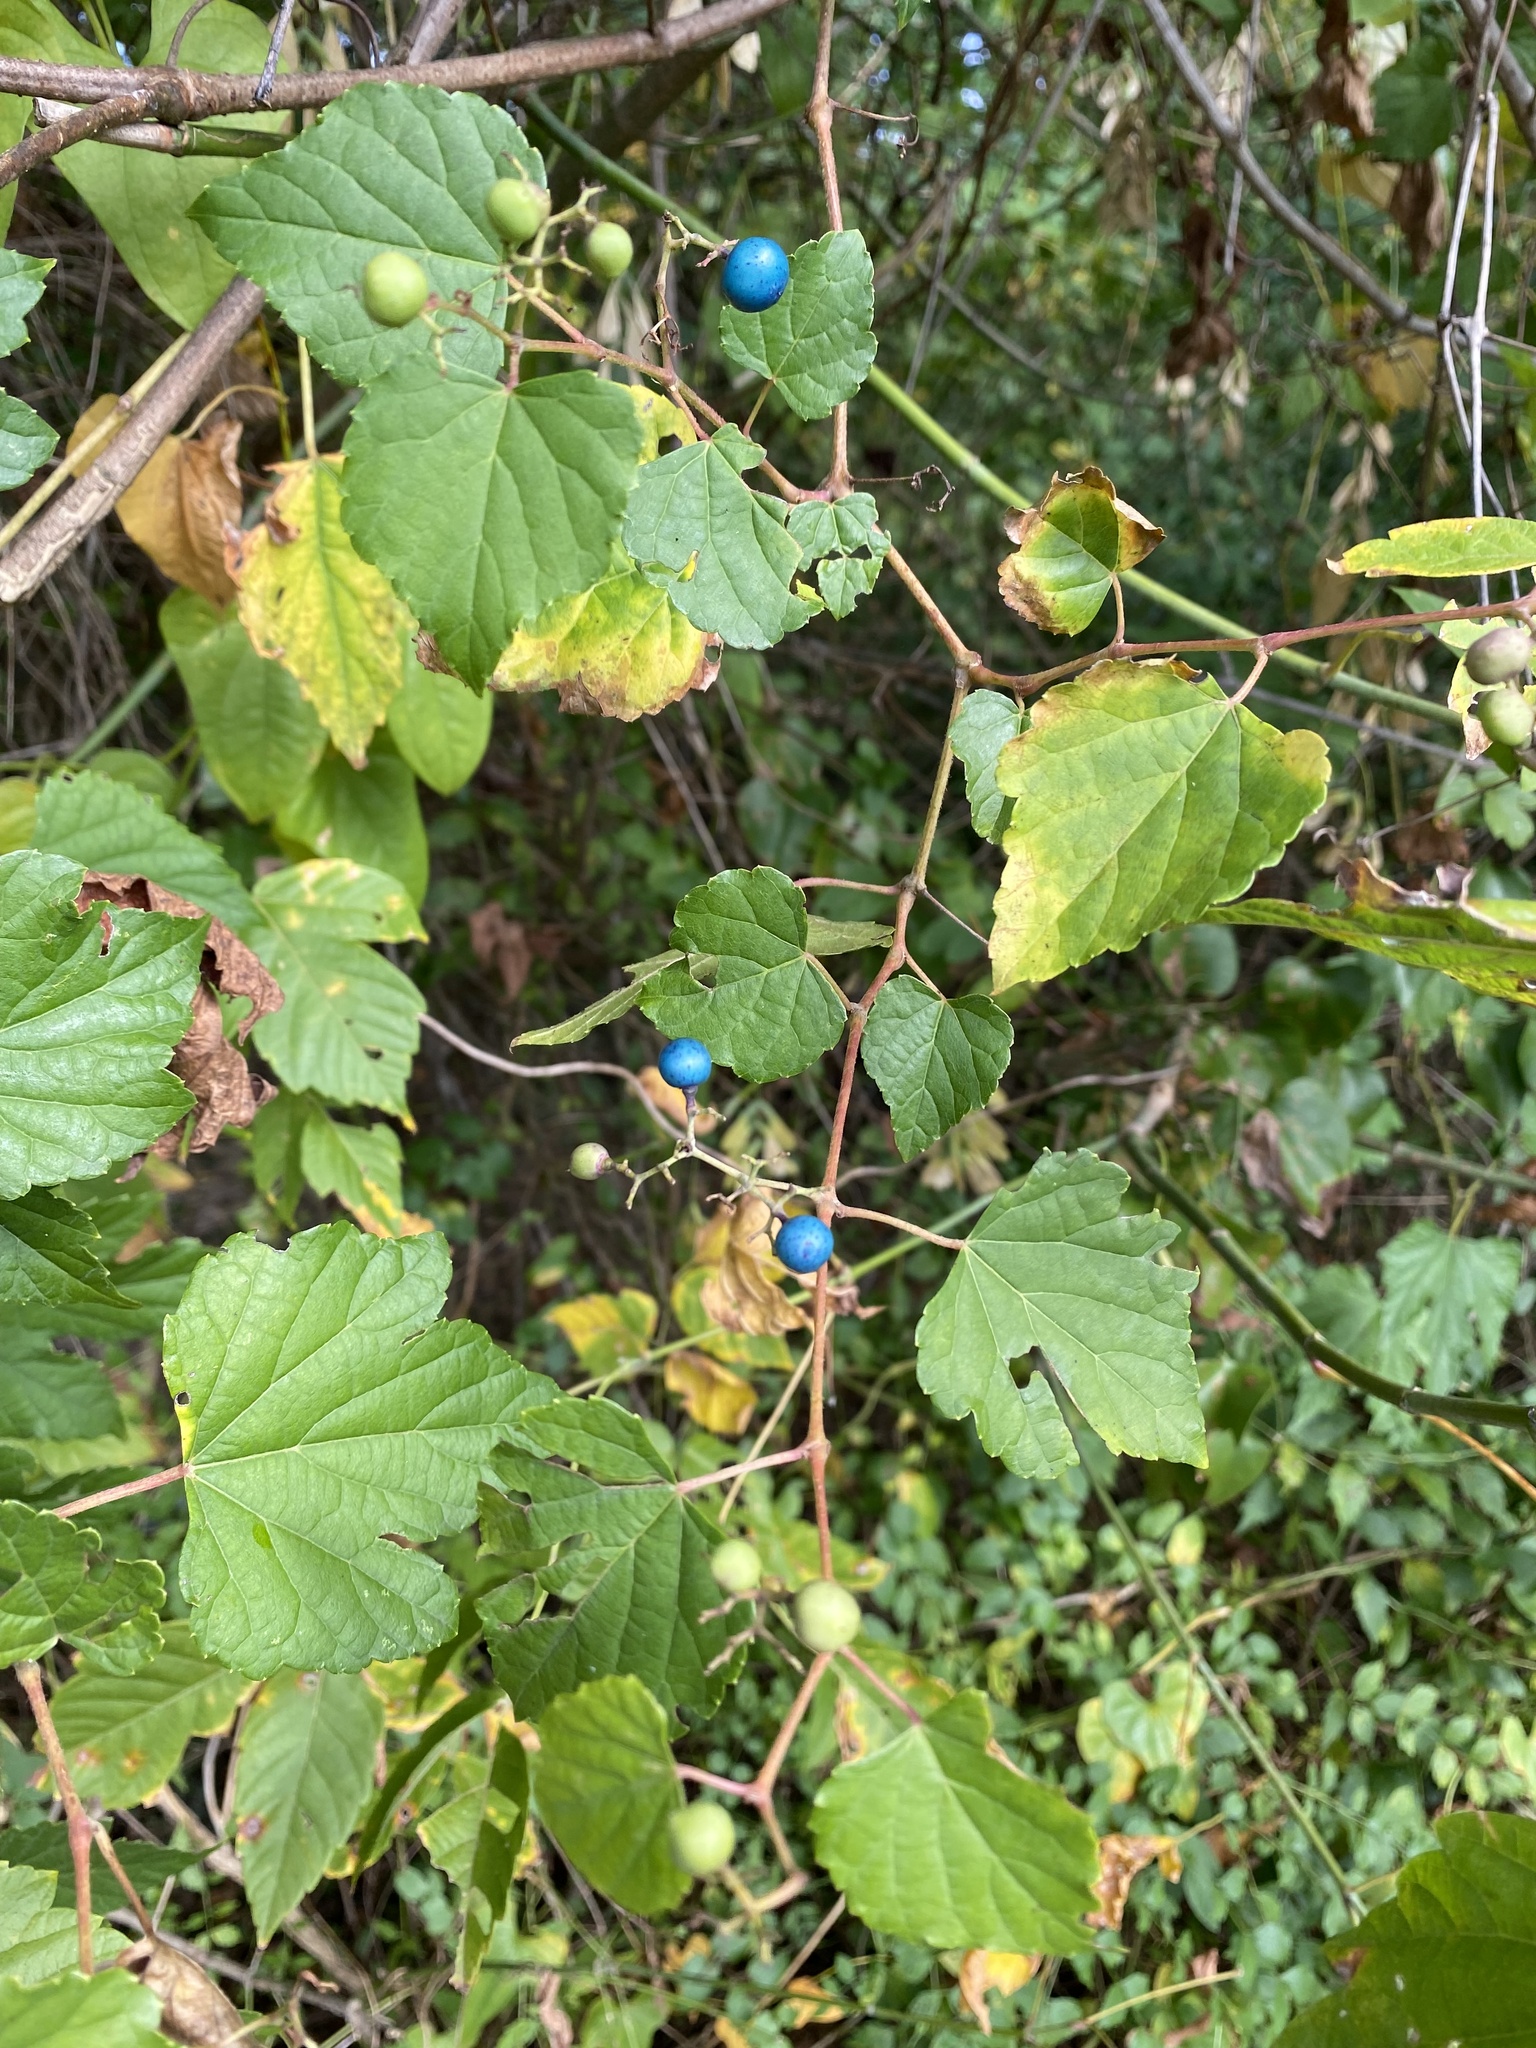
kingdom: Plantae
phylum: Tracheophyta
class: Magnoliopsida
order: Vitales
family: Vitaceae
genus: Ampelopsis
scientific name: Ampelopsis glandulosa
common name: Amur peppervine
